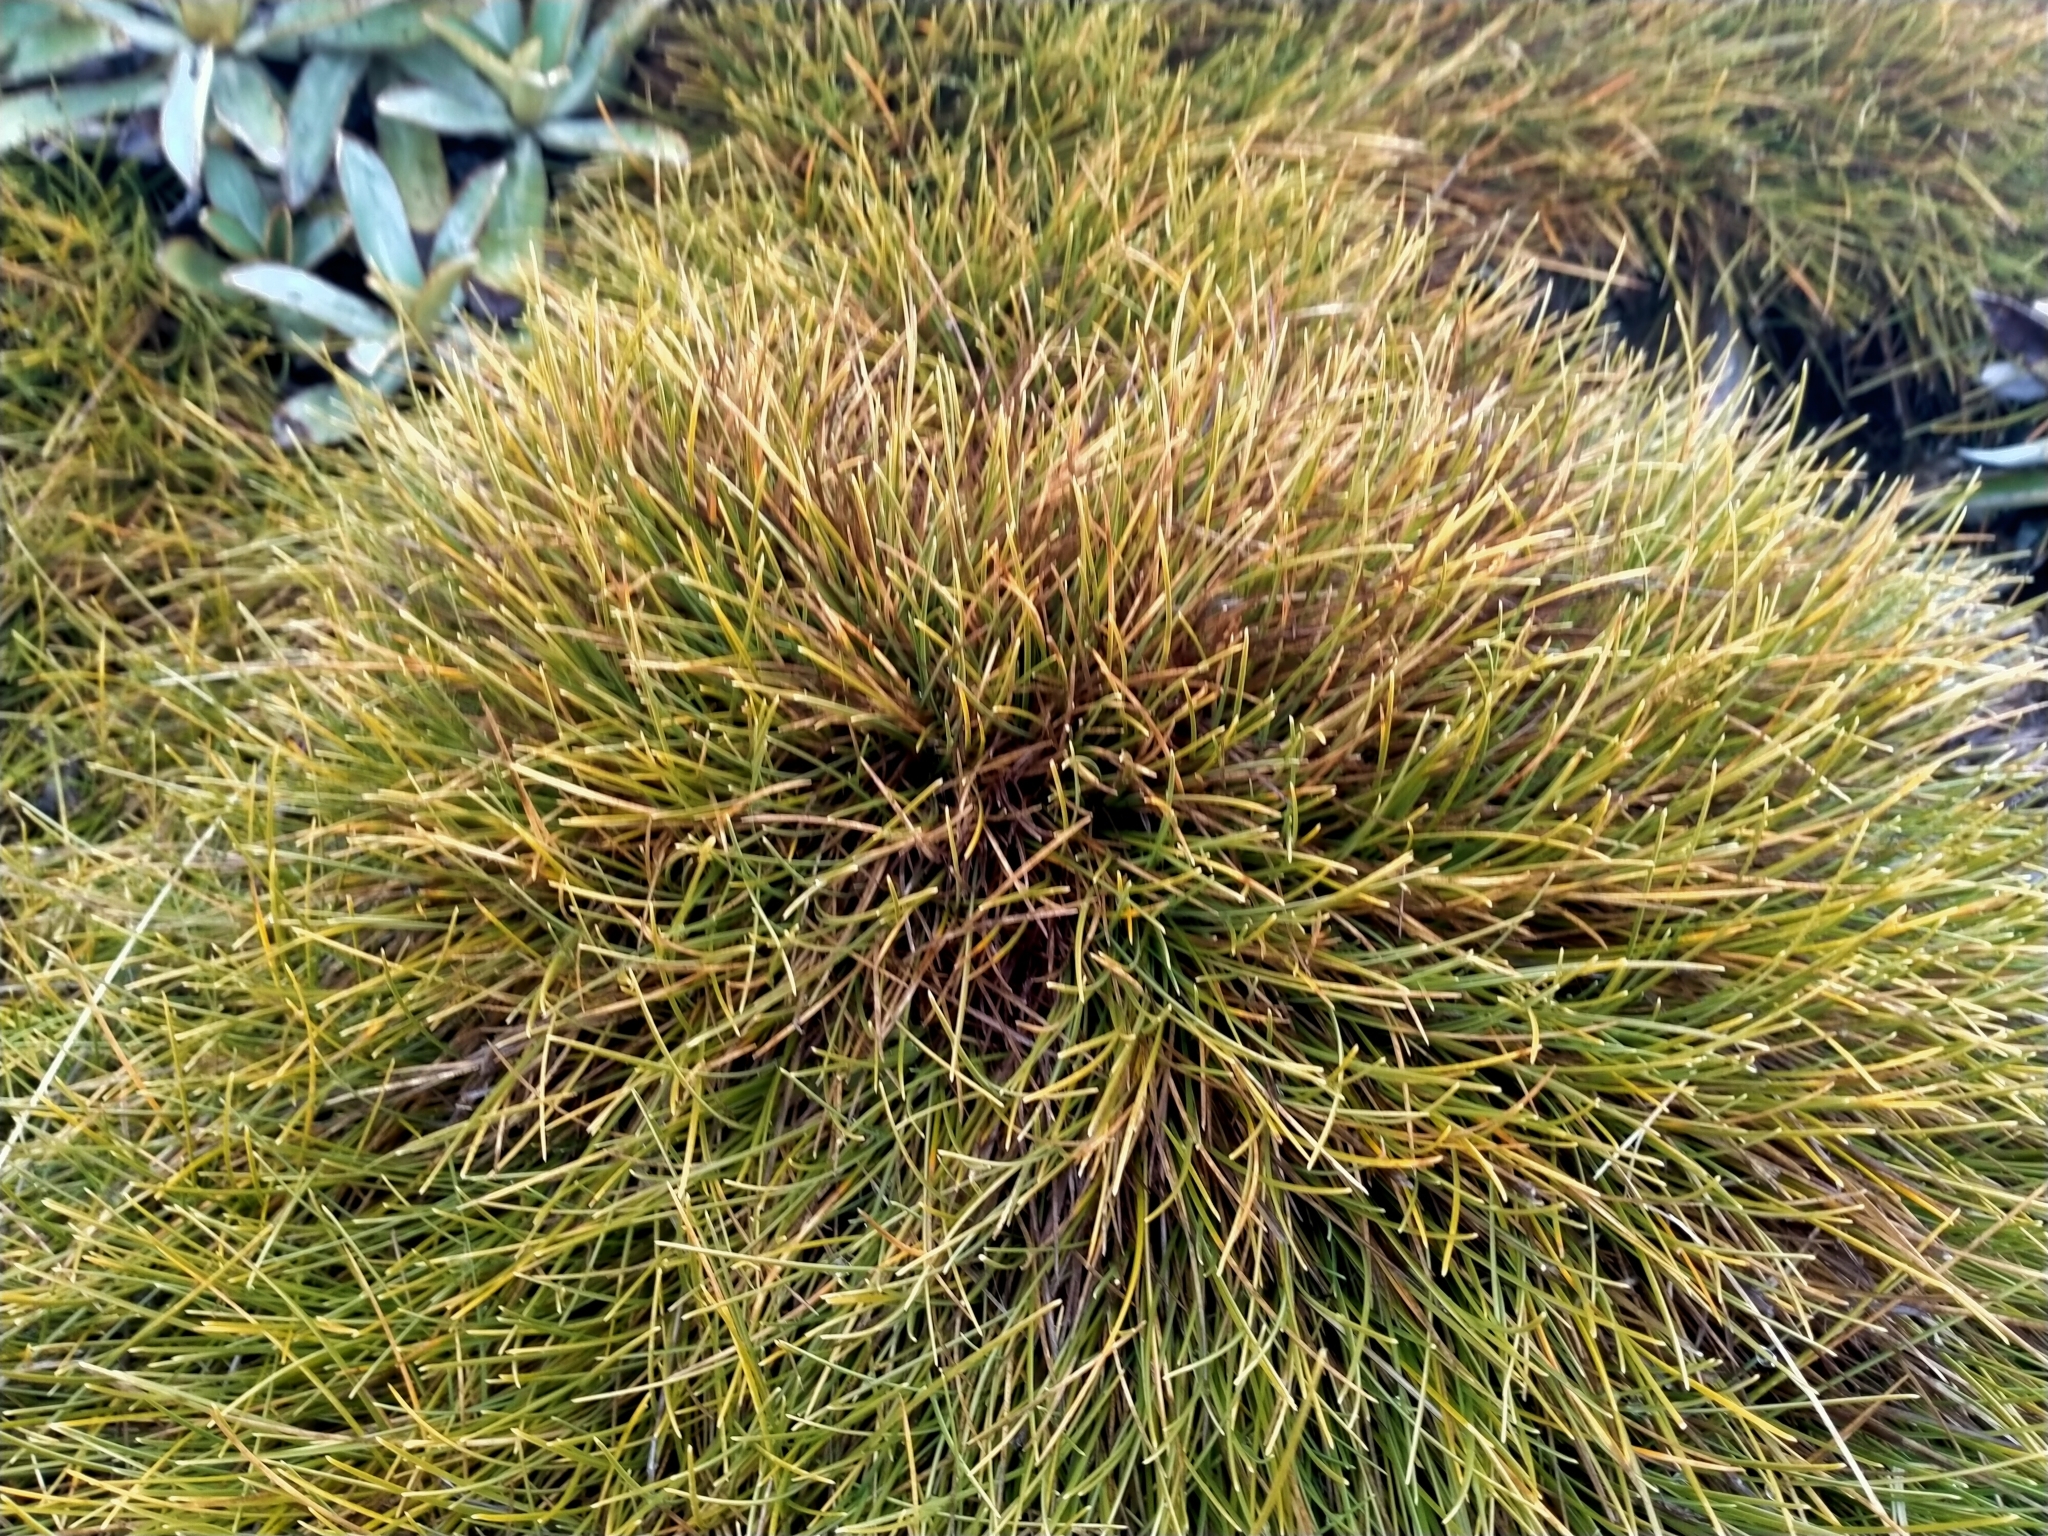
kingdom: Plantae
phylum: Tracheophyta
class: Liliopsida
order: Poales
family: Poaceae
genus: Chionochloa
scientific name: Chionochloa australis
